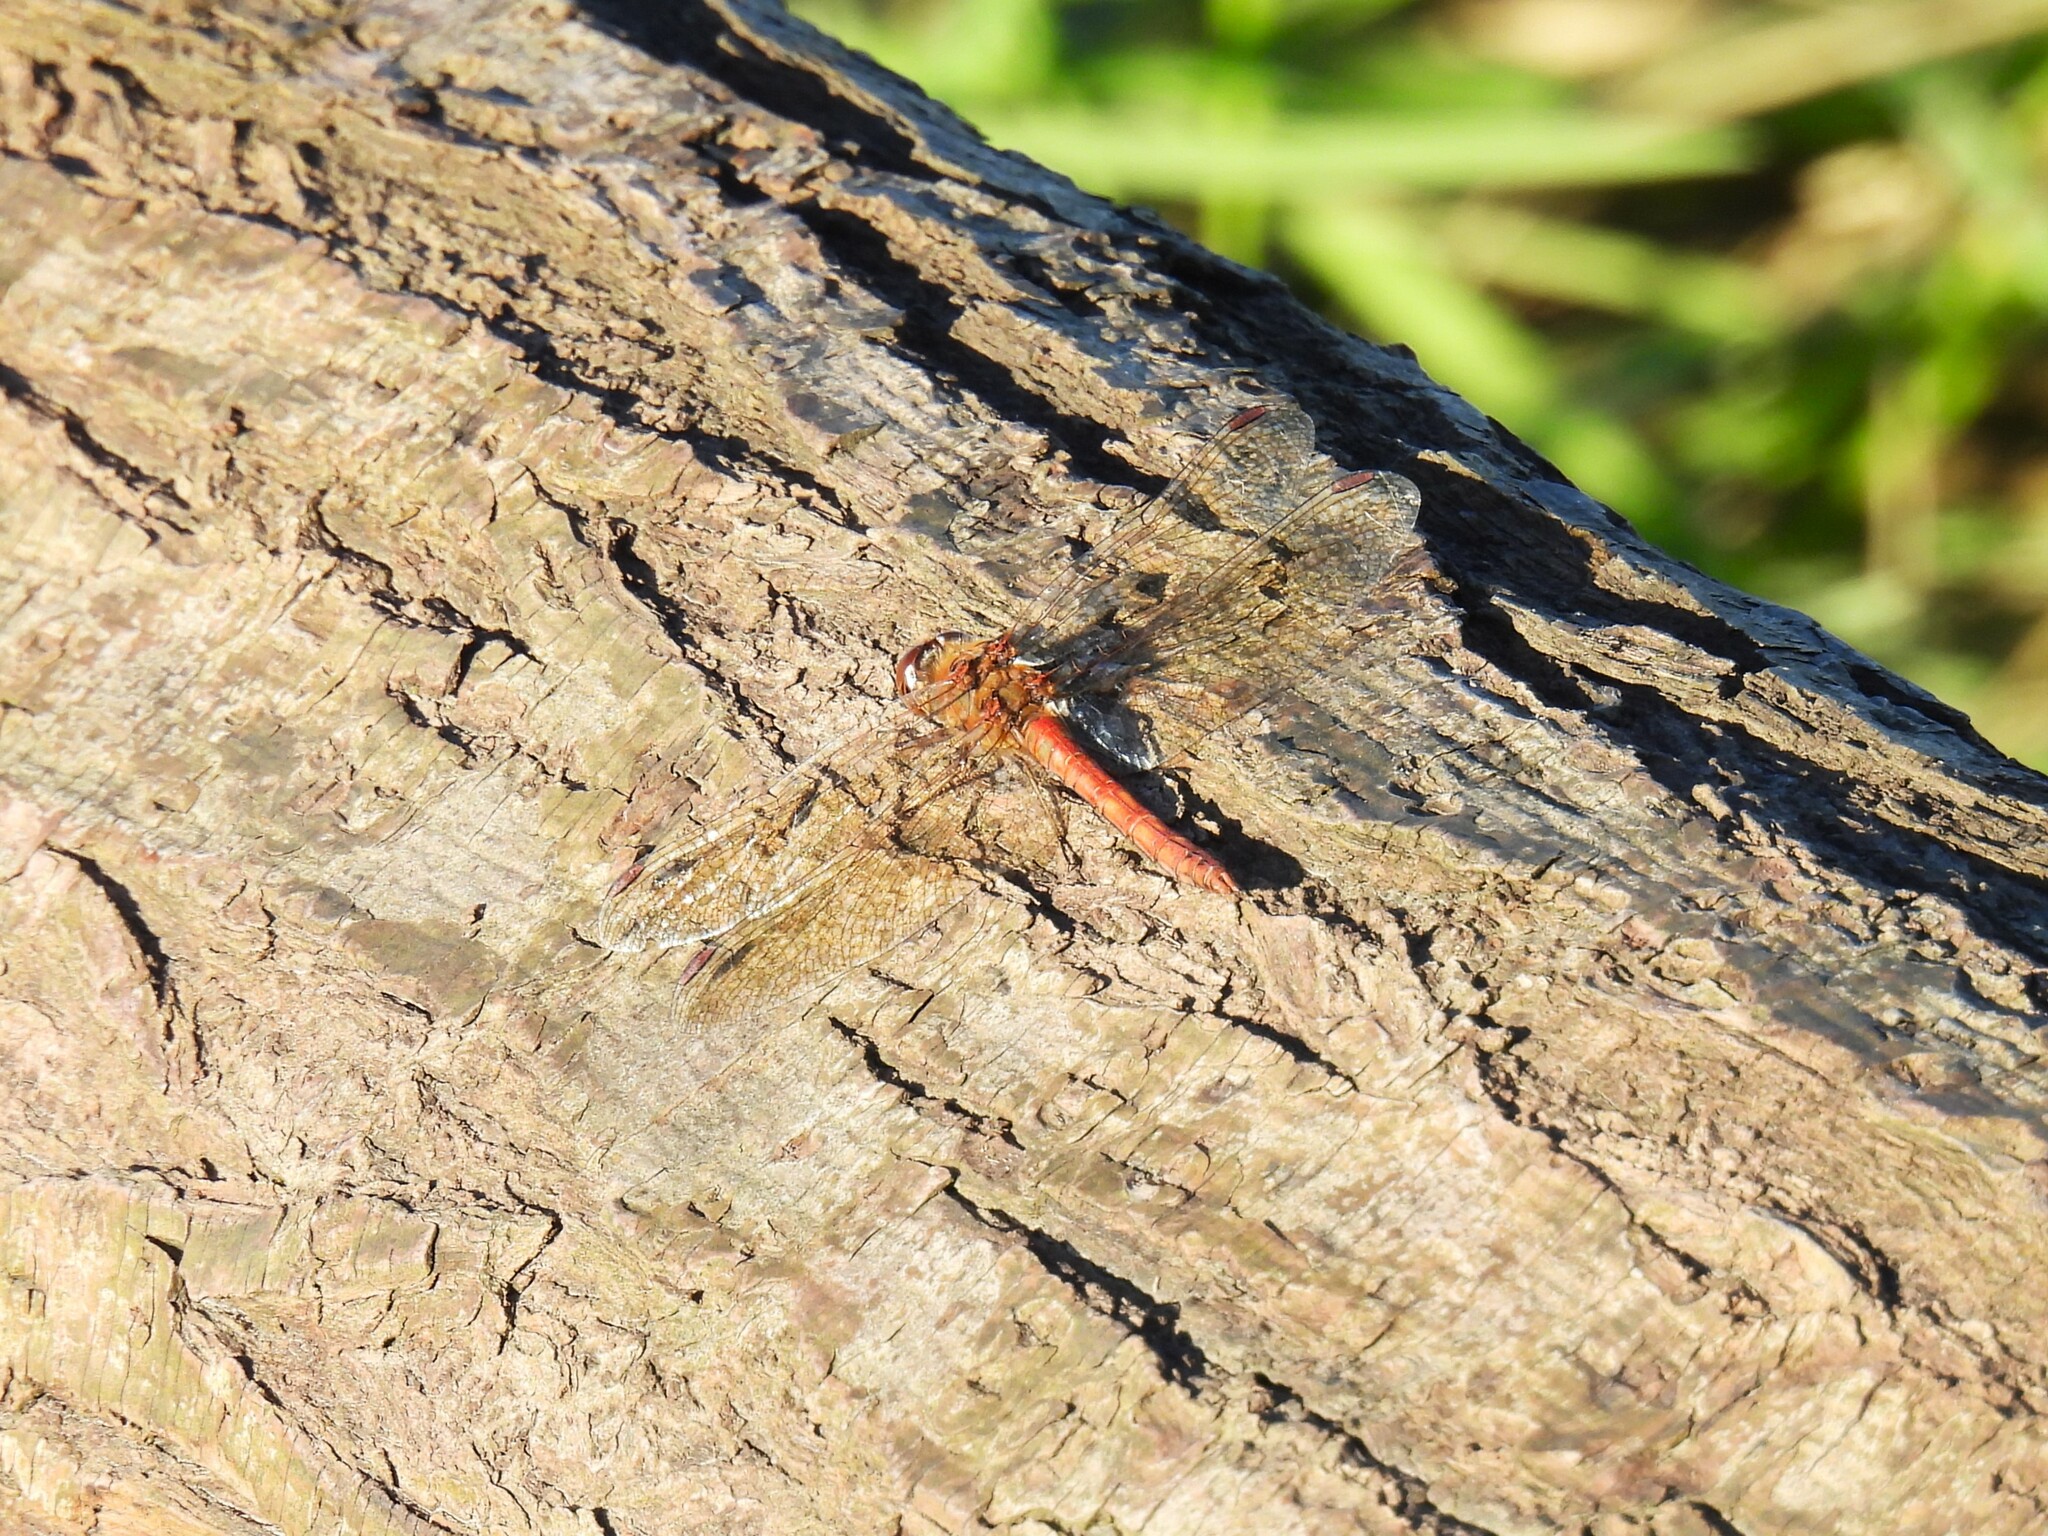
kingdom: Animalia
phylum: Arthropoda
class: Insecta
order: Odonata
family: Libellulidae
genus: Sympetrum
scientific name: Sympetrum striolatum
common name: Common darter
